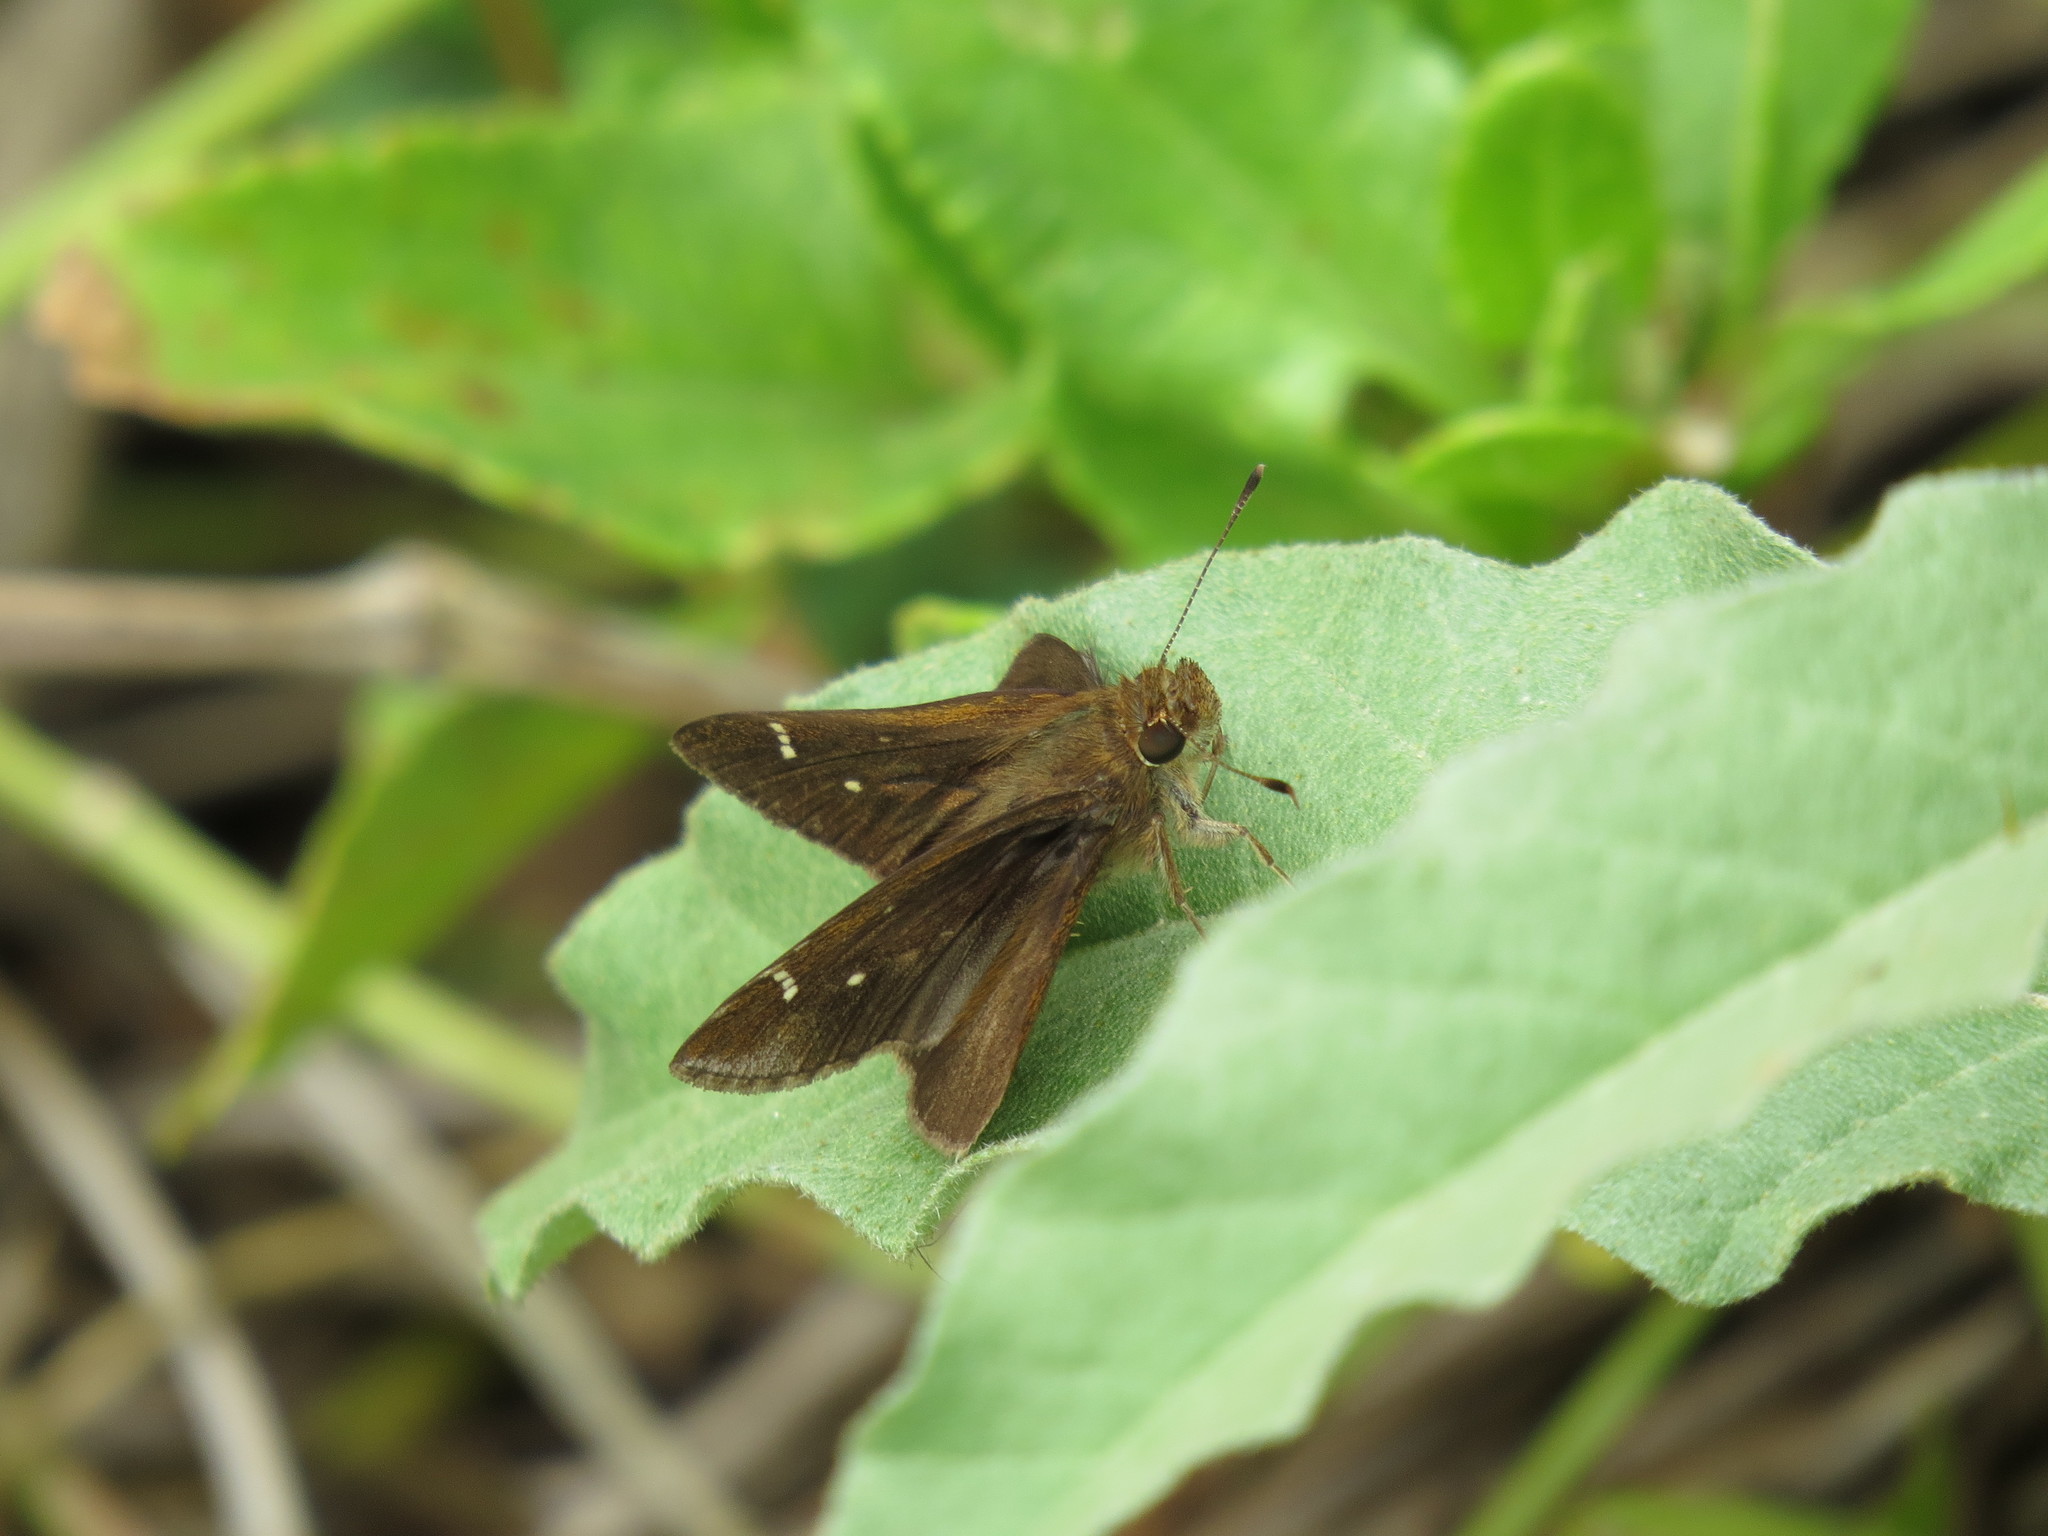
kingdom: Animalia
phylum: Arthropoda
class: Insecta
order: Lepidoptera
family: Hesperiidae
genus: Lerema
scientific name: Lerema accius
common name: Clouded skipper
